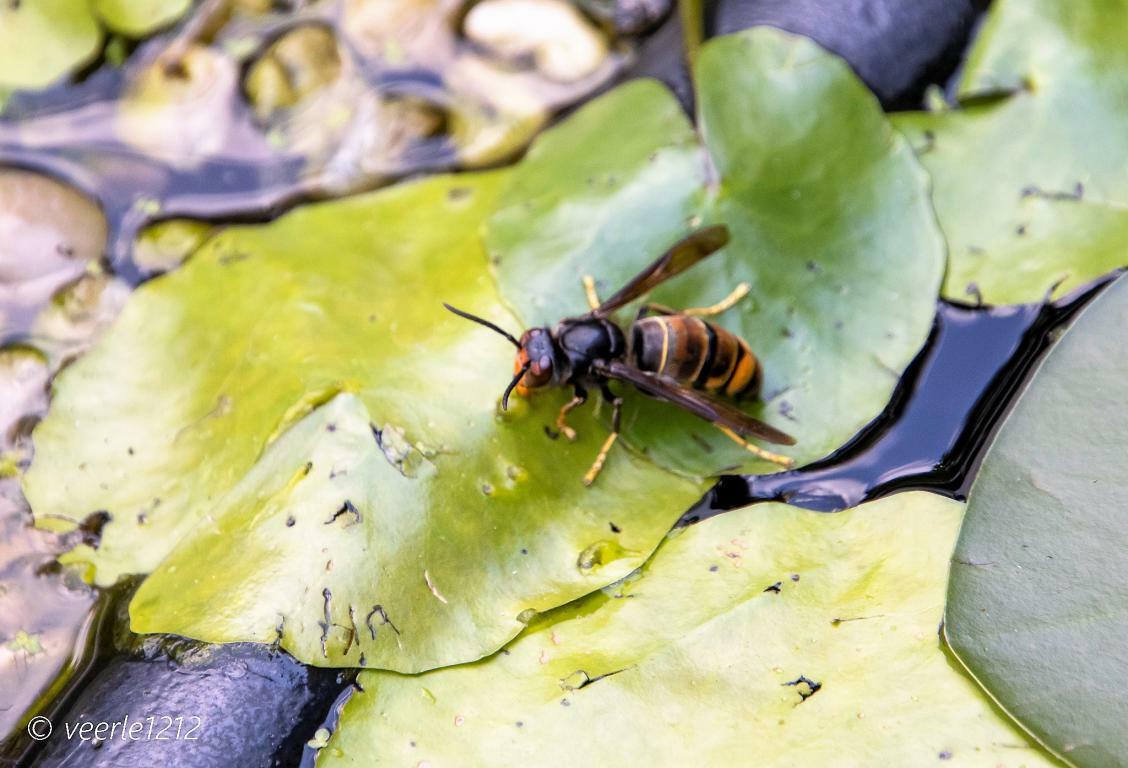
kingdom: Animalia
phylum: Arthropoda
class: Insecta
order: Hymenoptera
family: Vespidae
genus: Vespa
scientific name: Vespa velutina
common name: Asian hornet
